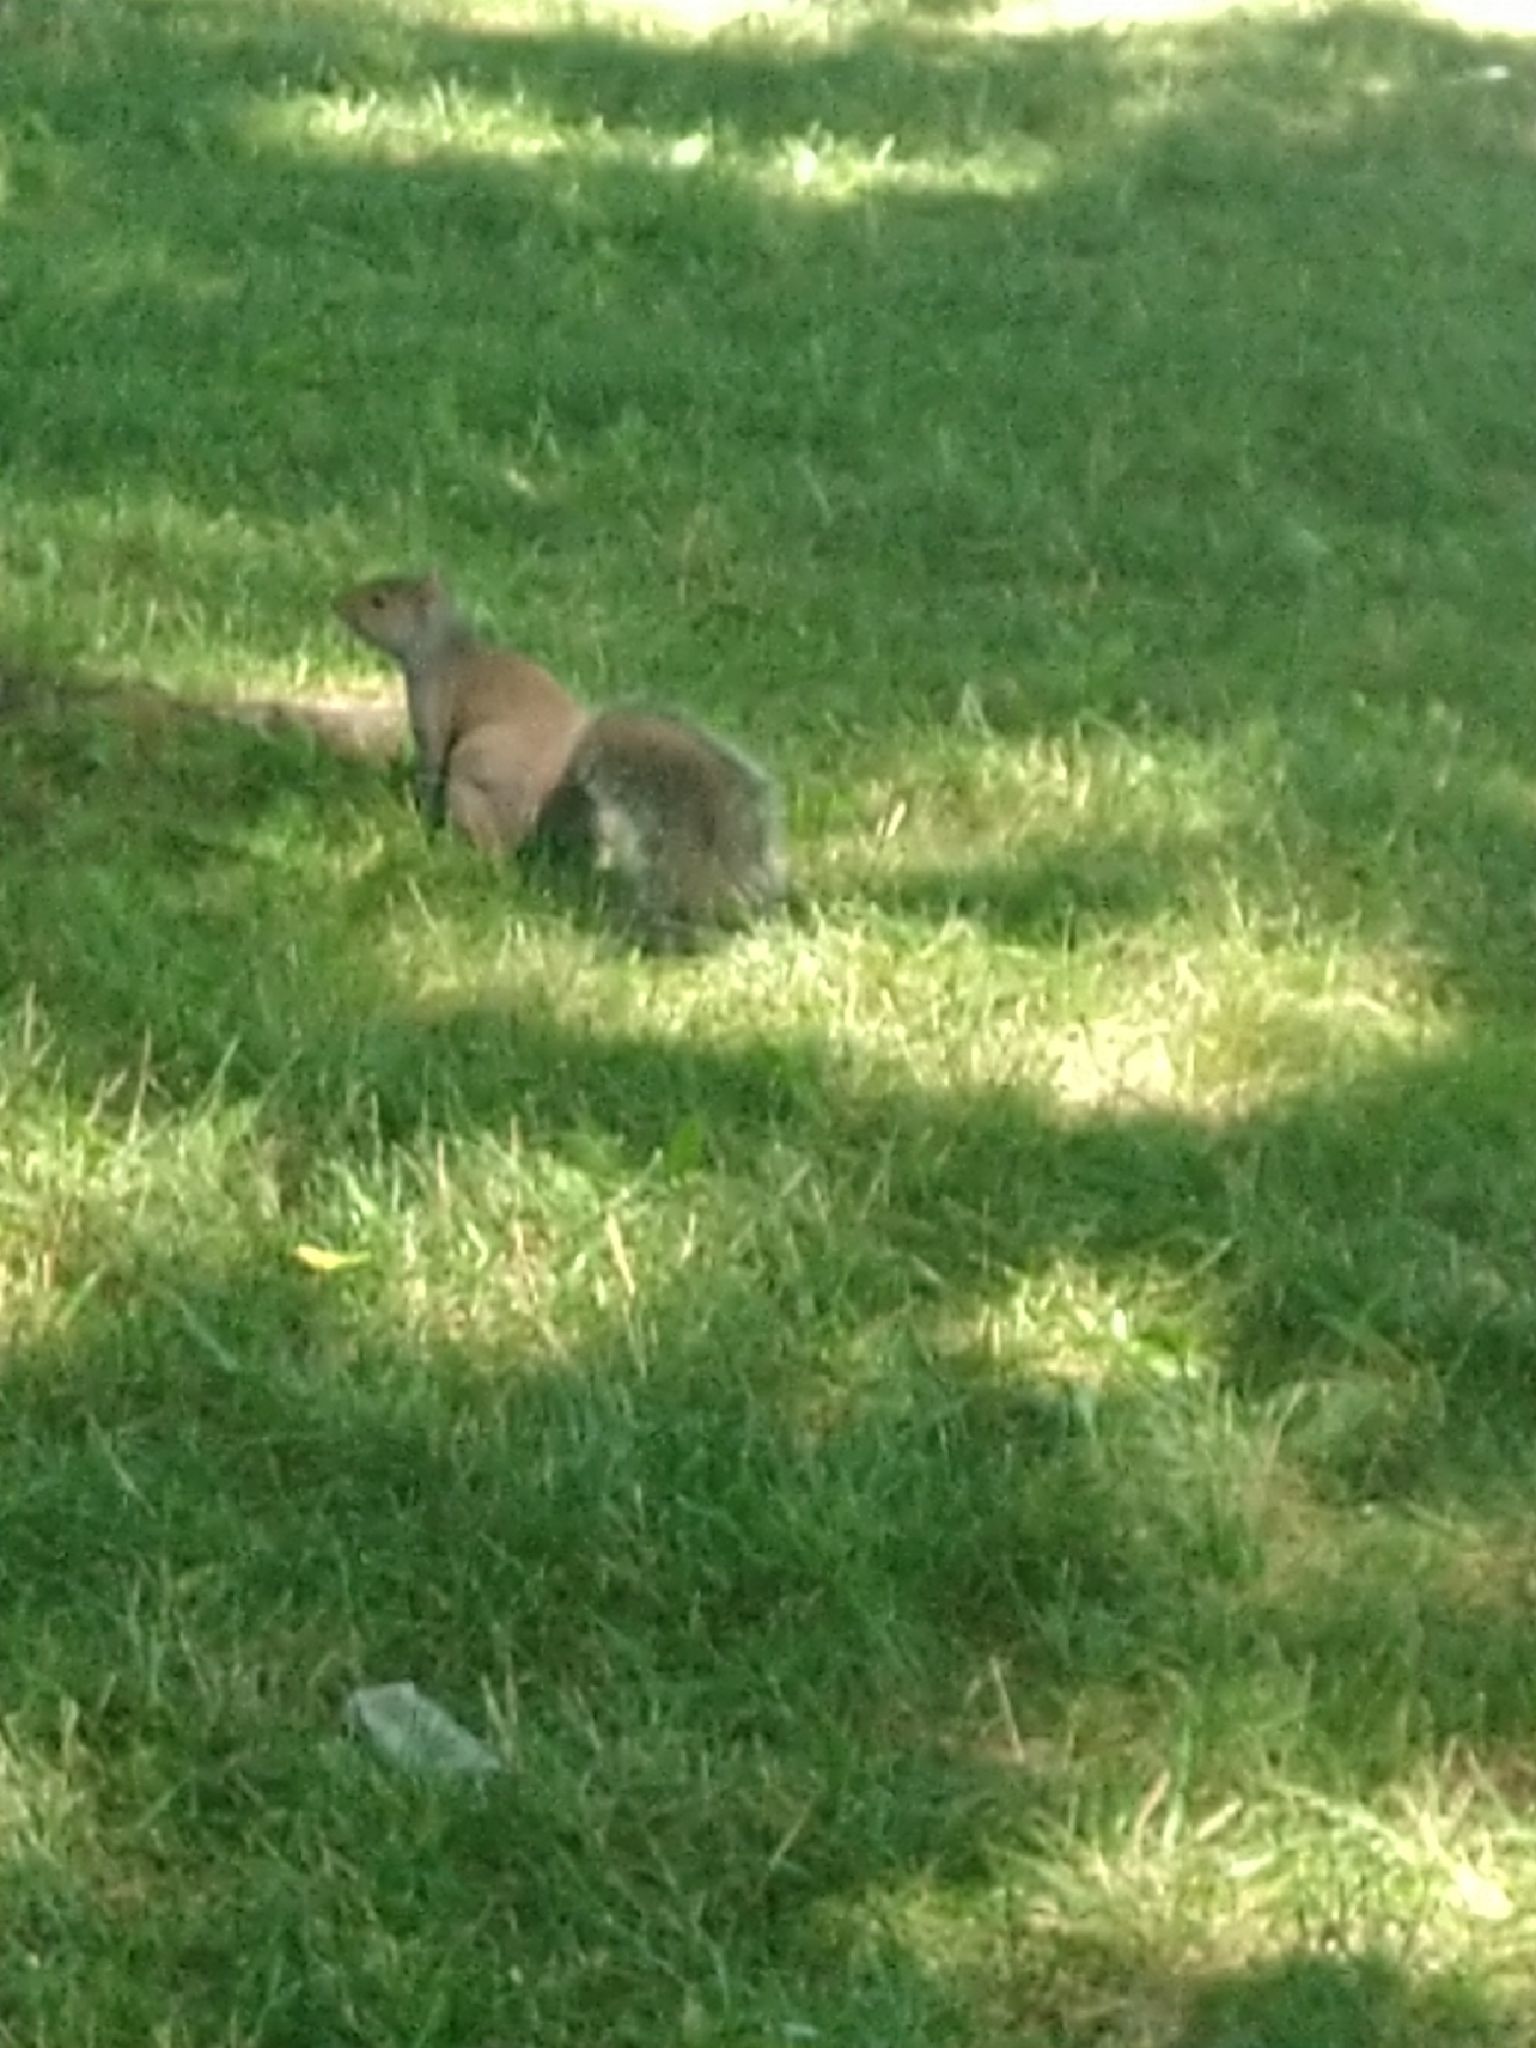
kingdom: Animalia
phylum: Chordata
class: Mammalia
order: Rodentia
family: Sciuridae
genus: Sciurus
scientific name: Sciurus carolinensis
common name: Eastern gray squirrel
